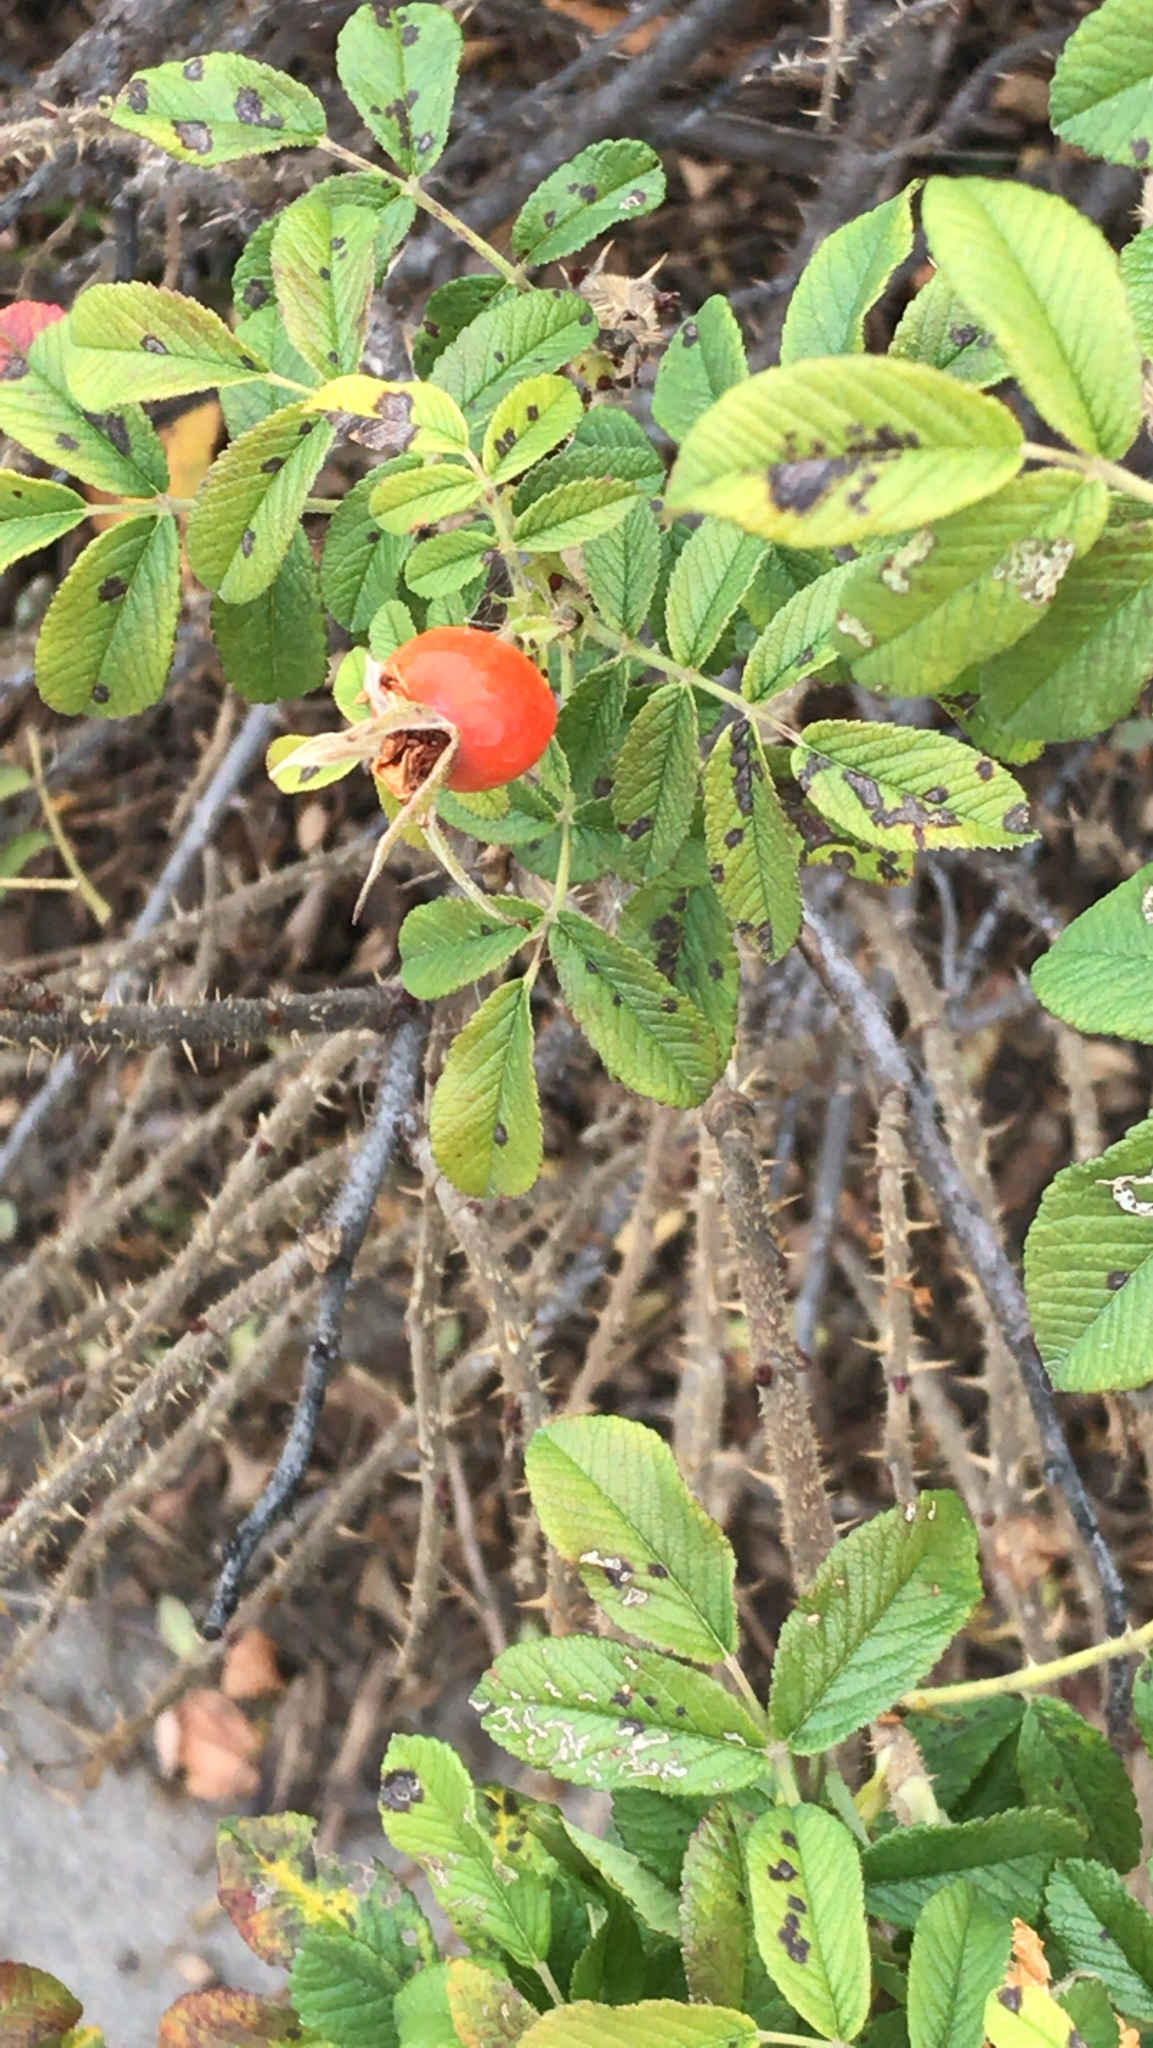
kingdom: Plantae
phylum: Tracheophyta
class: Magnoliopsida
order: Rosales
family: Rosaceae
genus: Rosa
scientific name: Rosa rugosa
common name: Japanese rose
